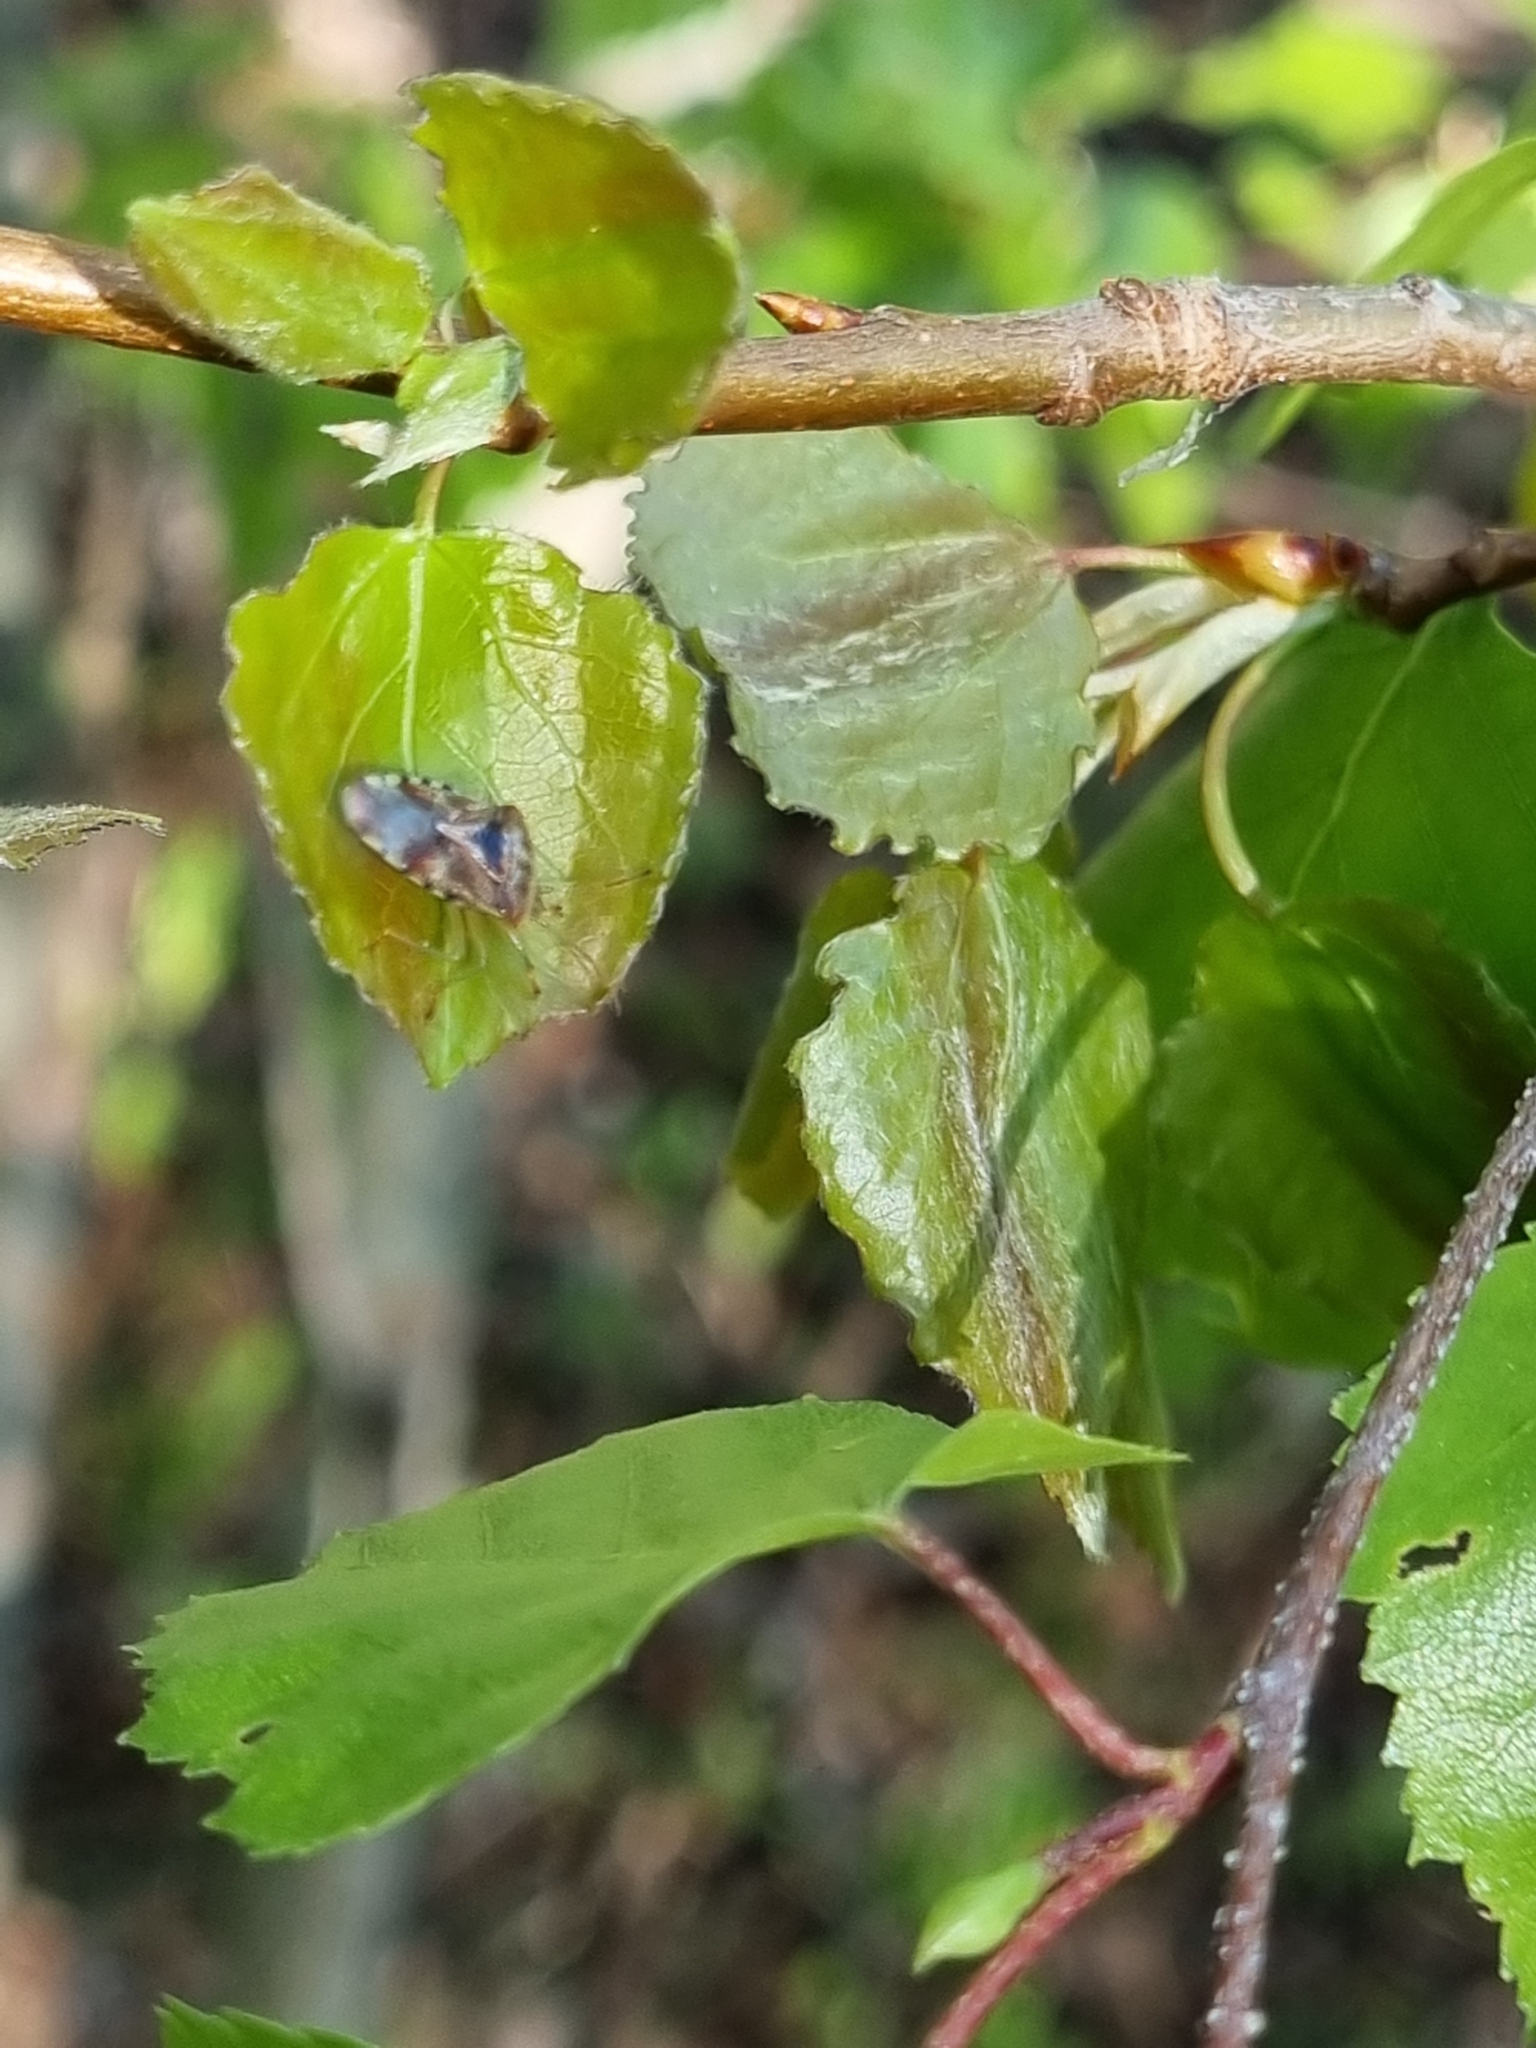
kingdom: Animalia
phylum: Arthropoda
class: Insecta
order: Hemiptera
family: Acanthosomatidae
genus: Elasmucha
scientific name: Elasmucha grisea
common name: Parent bug
